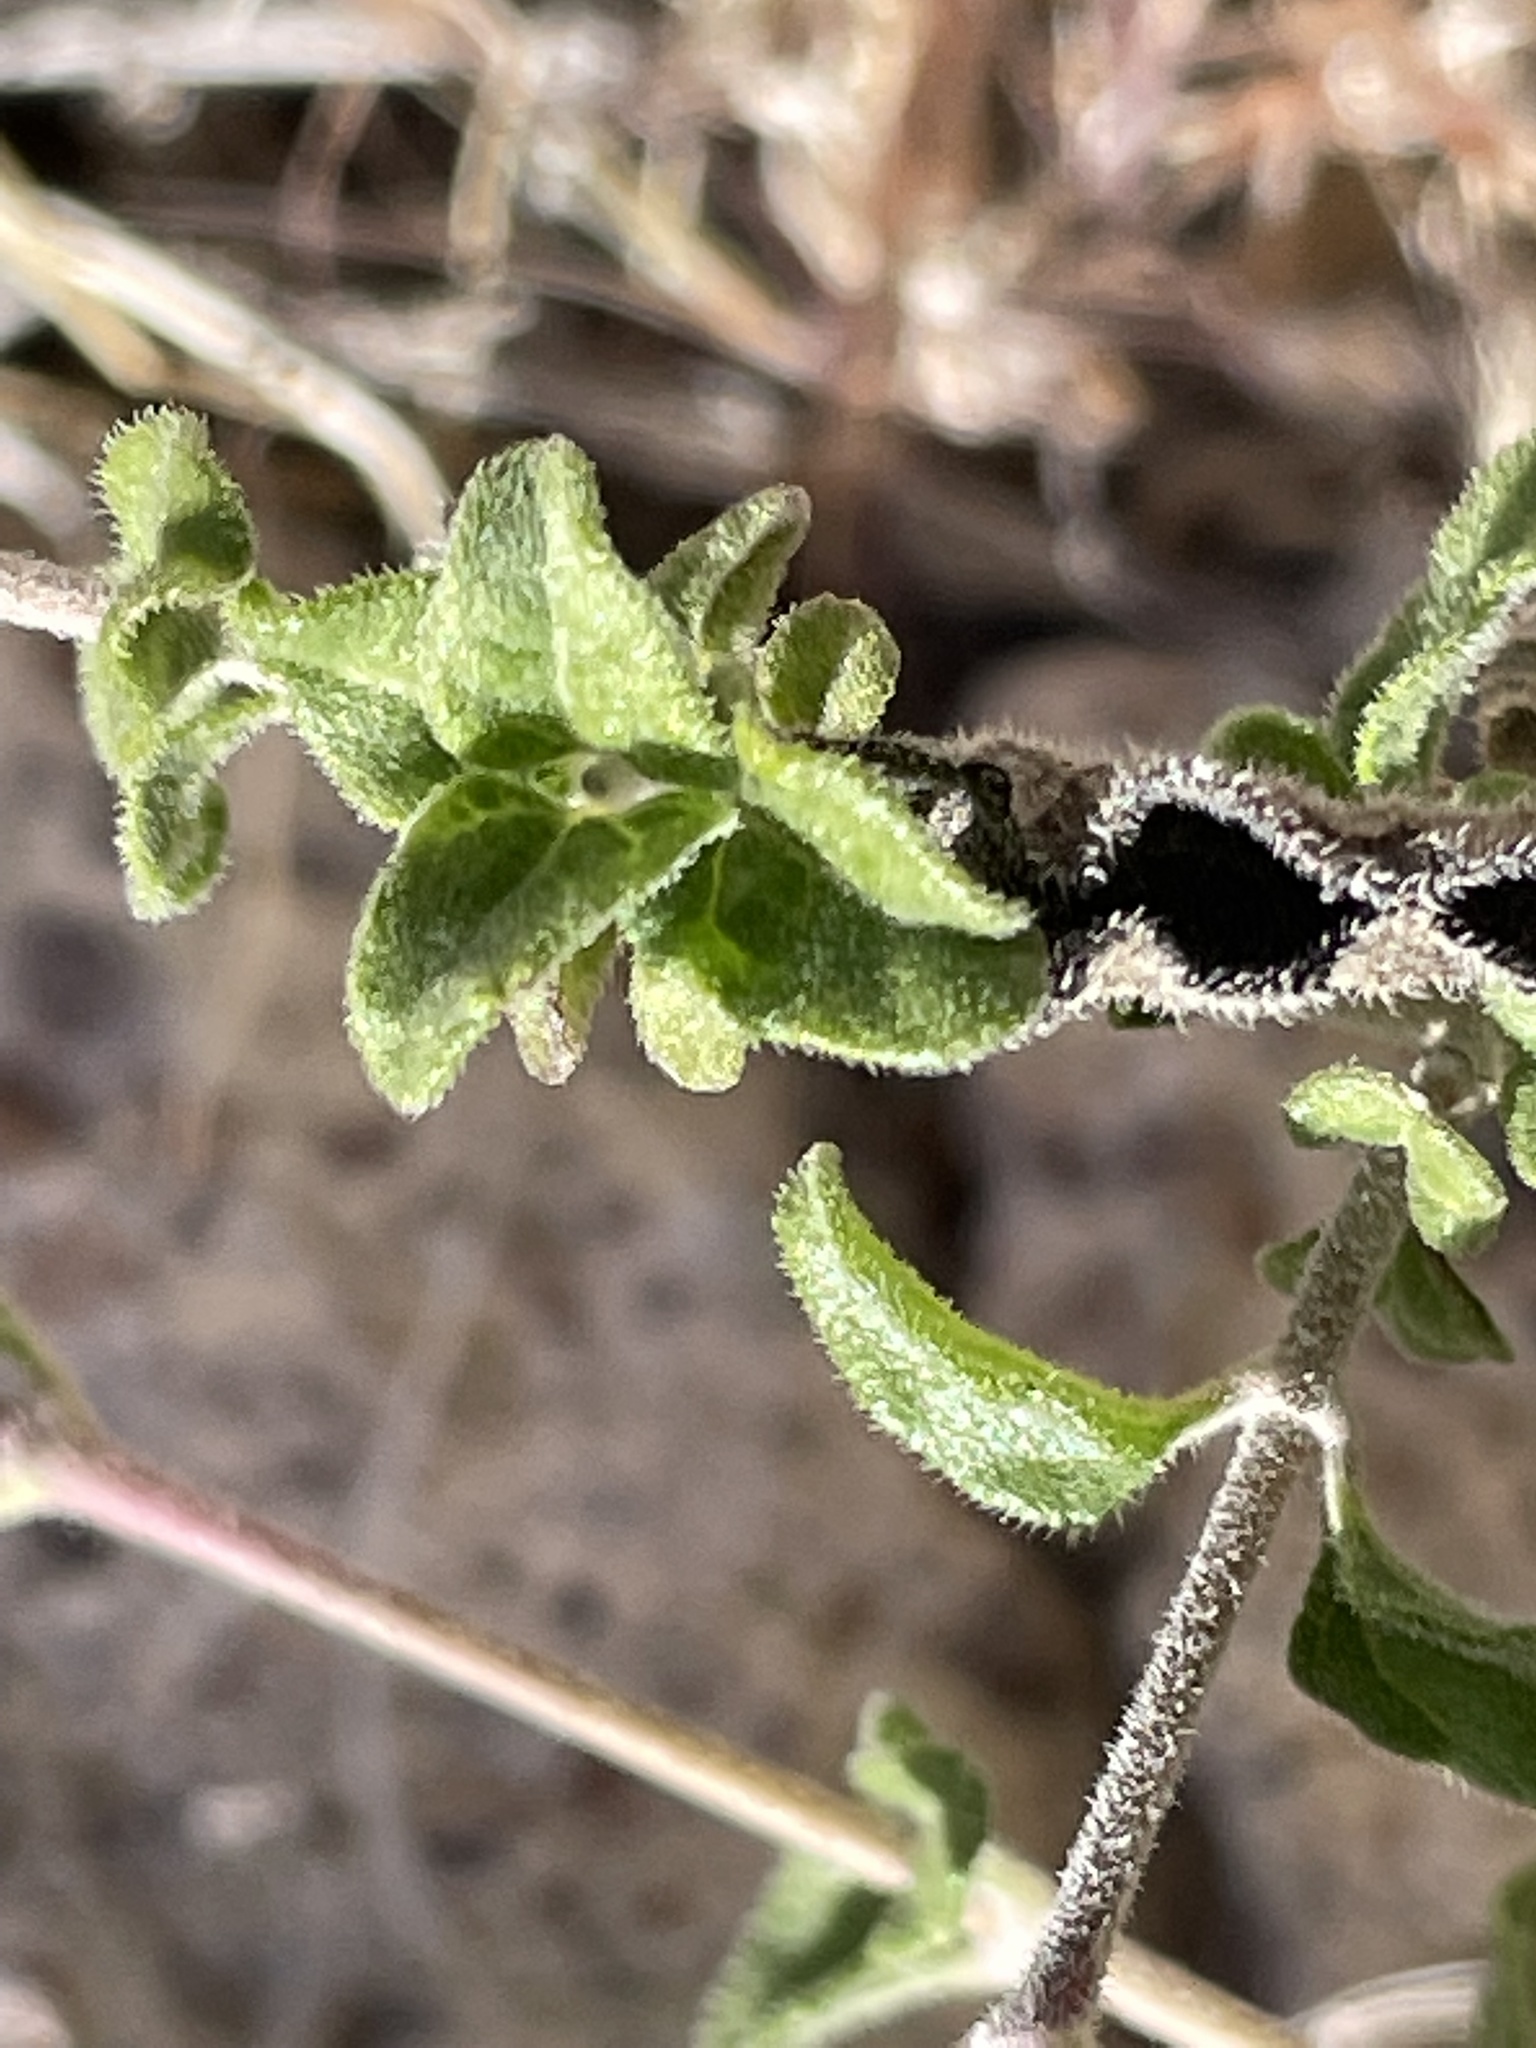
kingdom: Plantae
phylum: Tracheophyta
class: Magnoliopsida
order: Asterales
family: Asteraceae
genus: Bahiopsis
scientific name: Bahiopsis parishii
